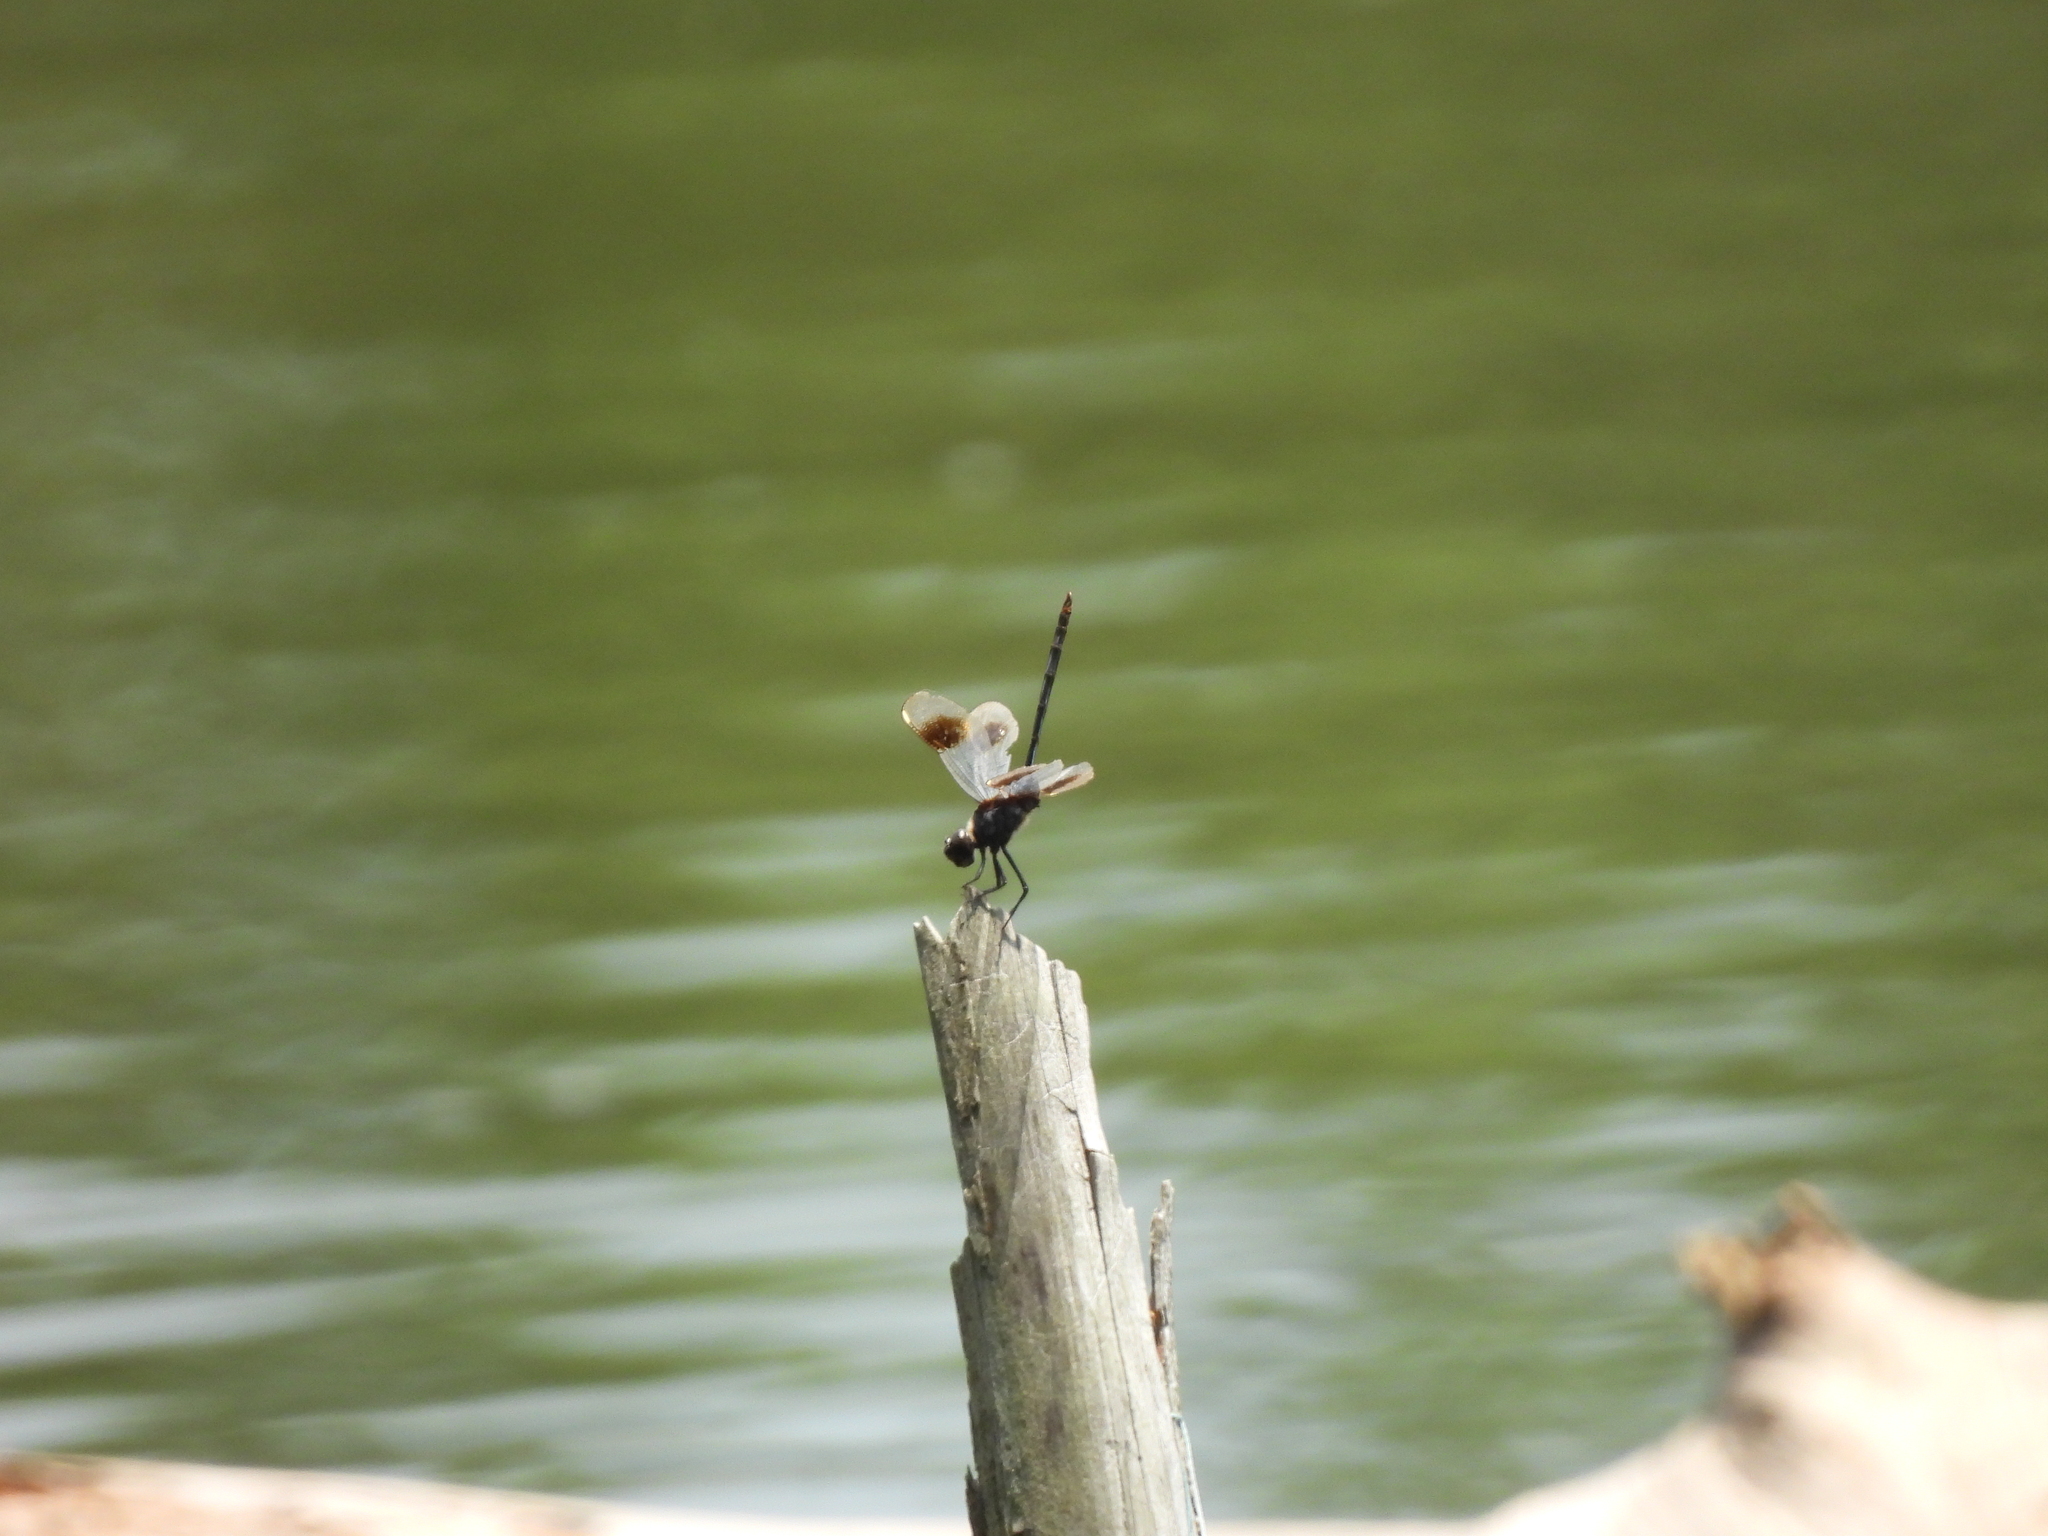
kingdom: Animalia
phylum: Arthropoda
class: Insecta
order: Odonata
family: Libellulidae
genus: Brachymesia
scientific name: Brachymesia gravida
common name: Four-spotted pennant
